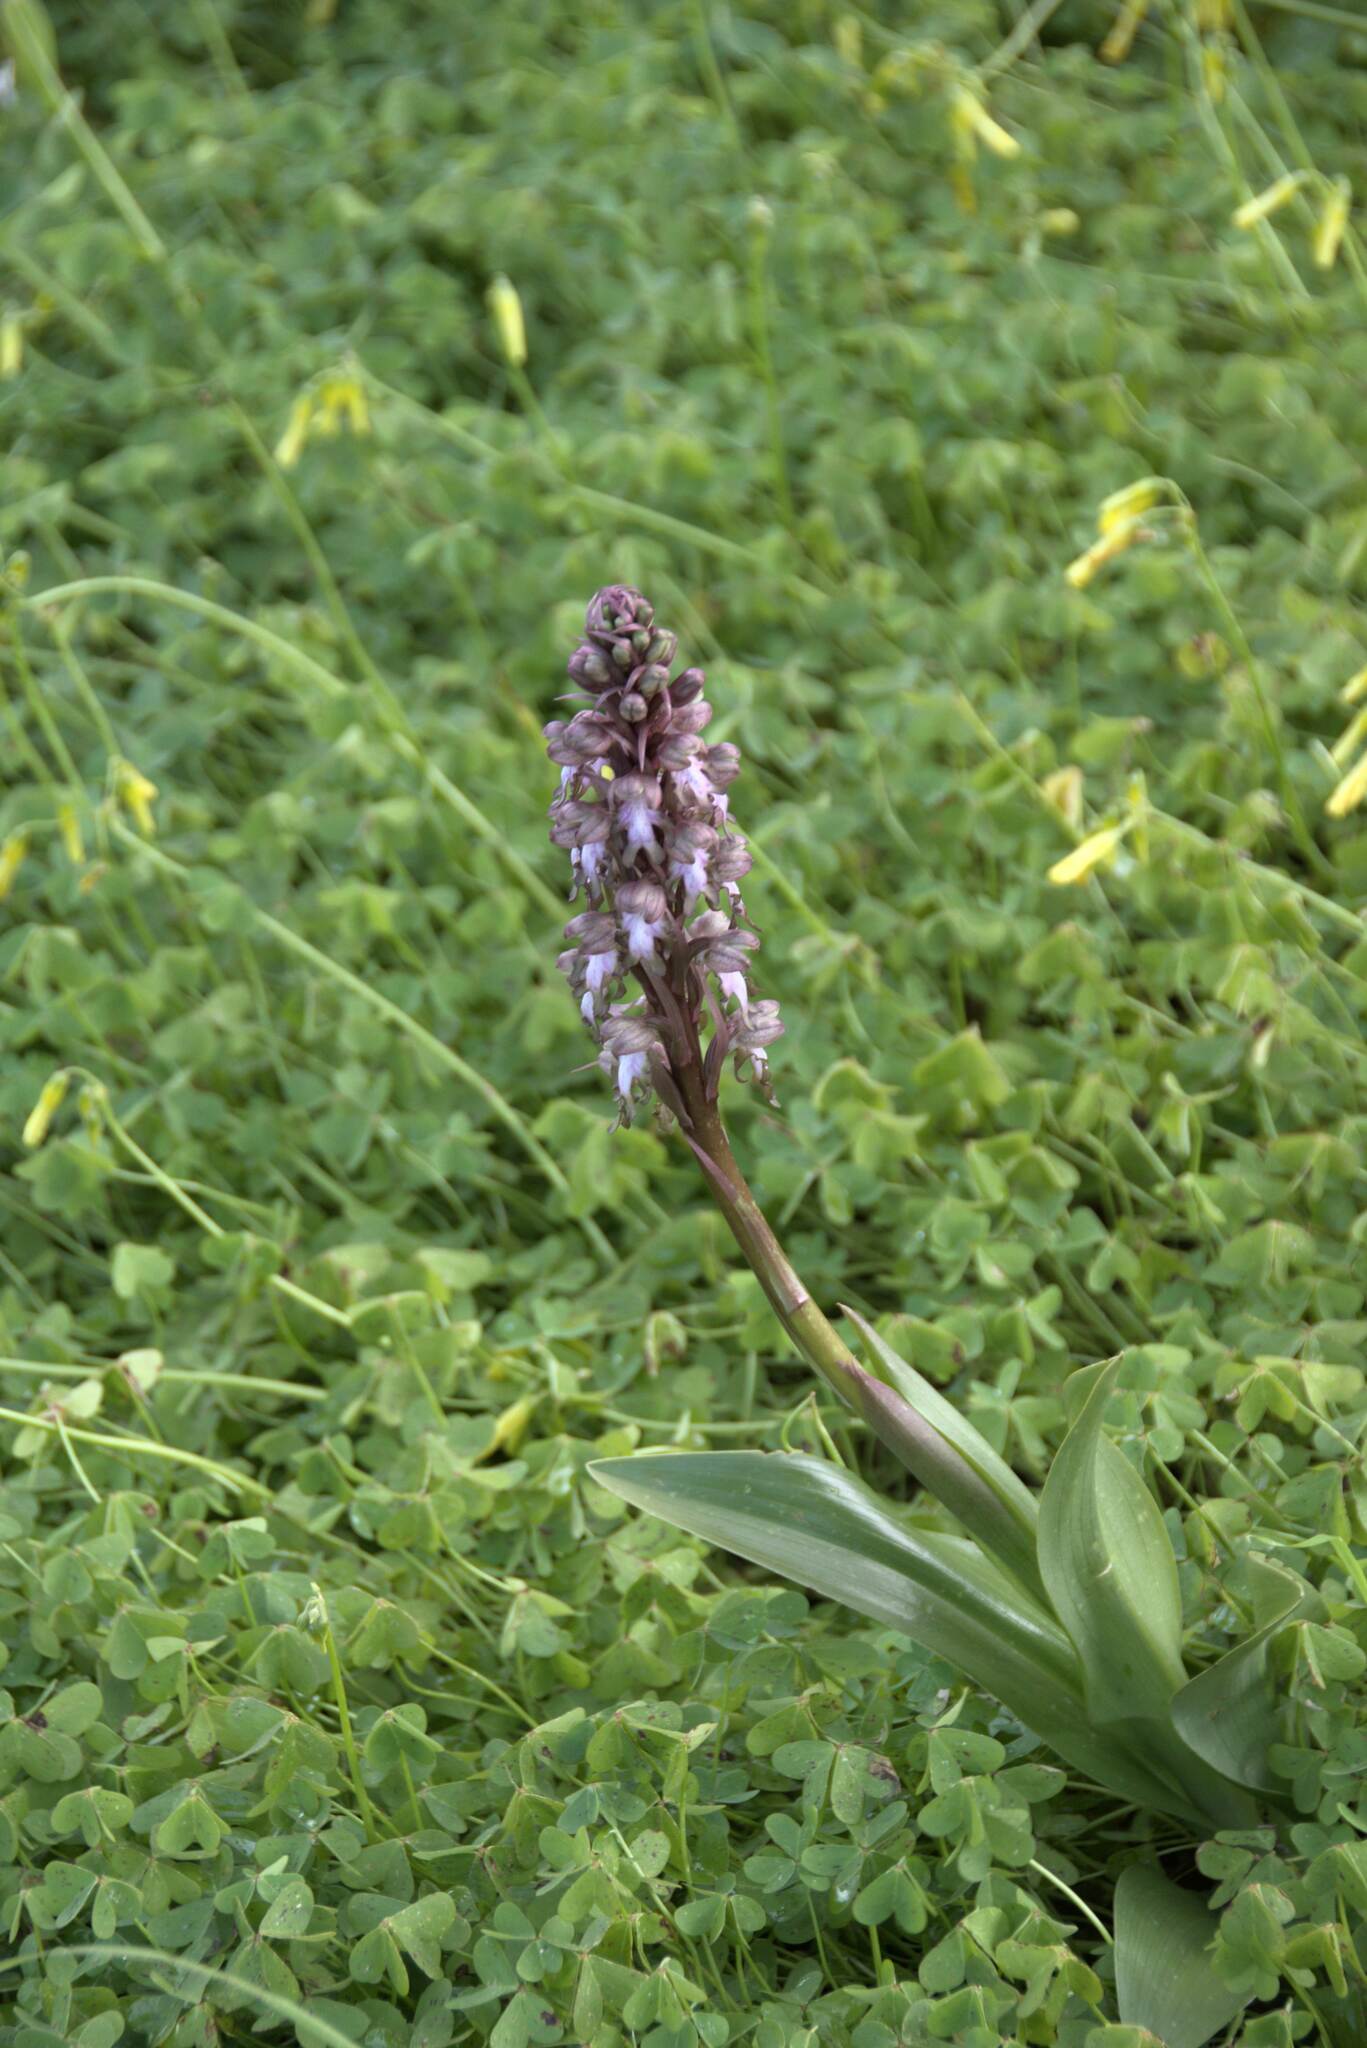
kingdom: Plantae
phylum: Tracheophyta
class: Liliopsida
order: Asparagales
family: Orchidaceae
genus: Himantoglossum
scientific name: Himantoglossum robertianum
